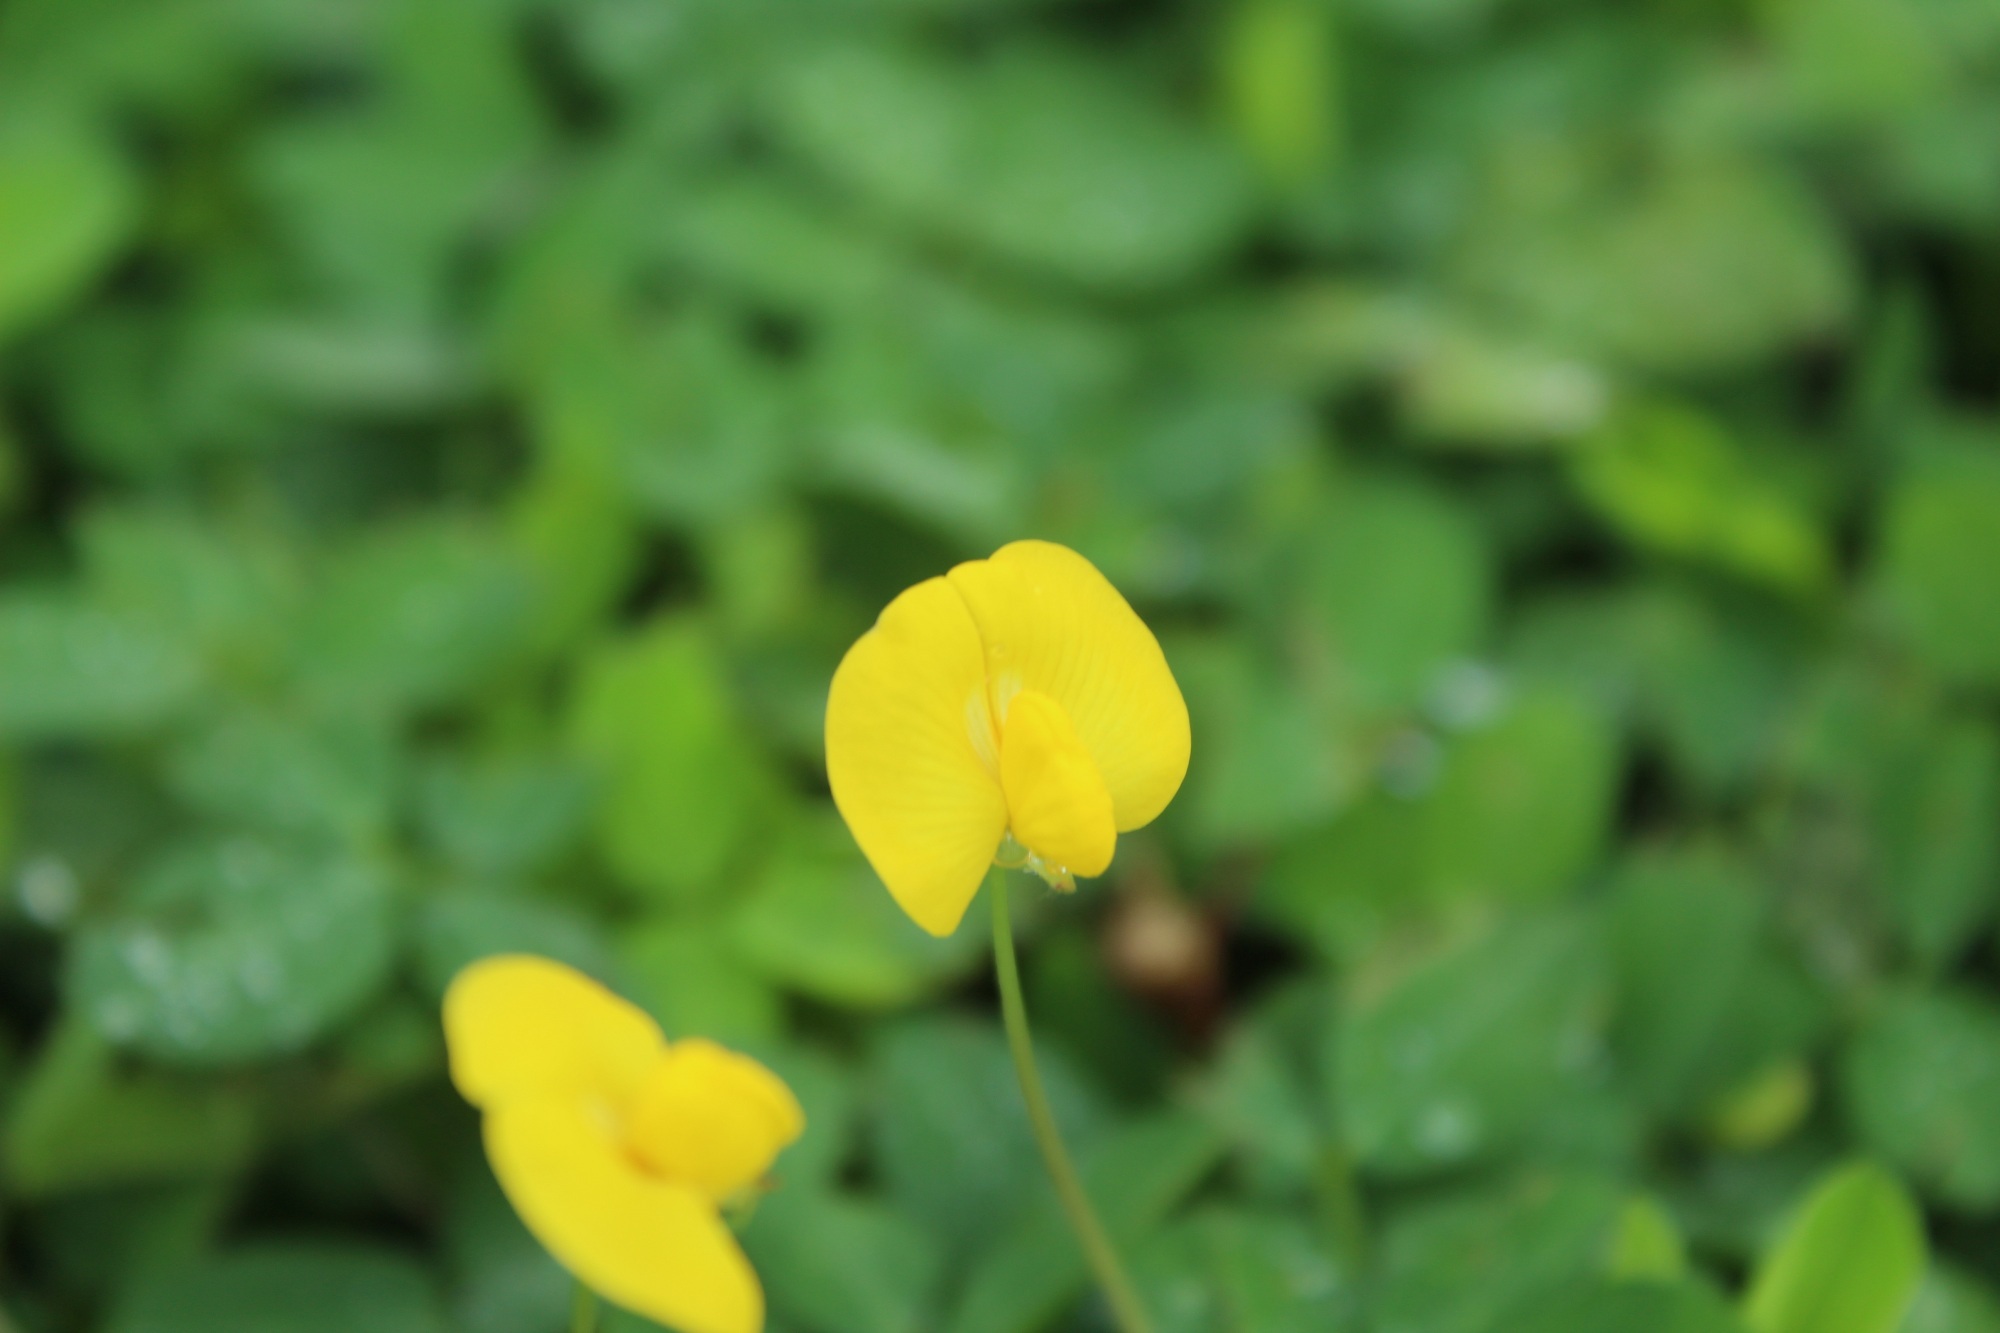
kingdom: Plantae
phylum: Tracheophyta
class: Magnoliopsida
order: Fabales
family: Fabaceae
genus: Arachis
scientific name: Arachis pintoi
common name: Pinto peanut
